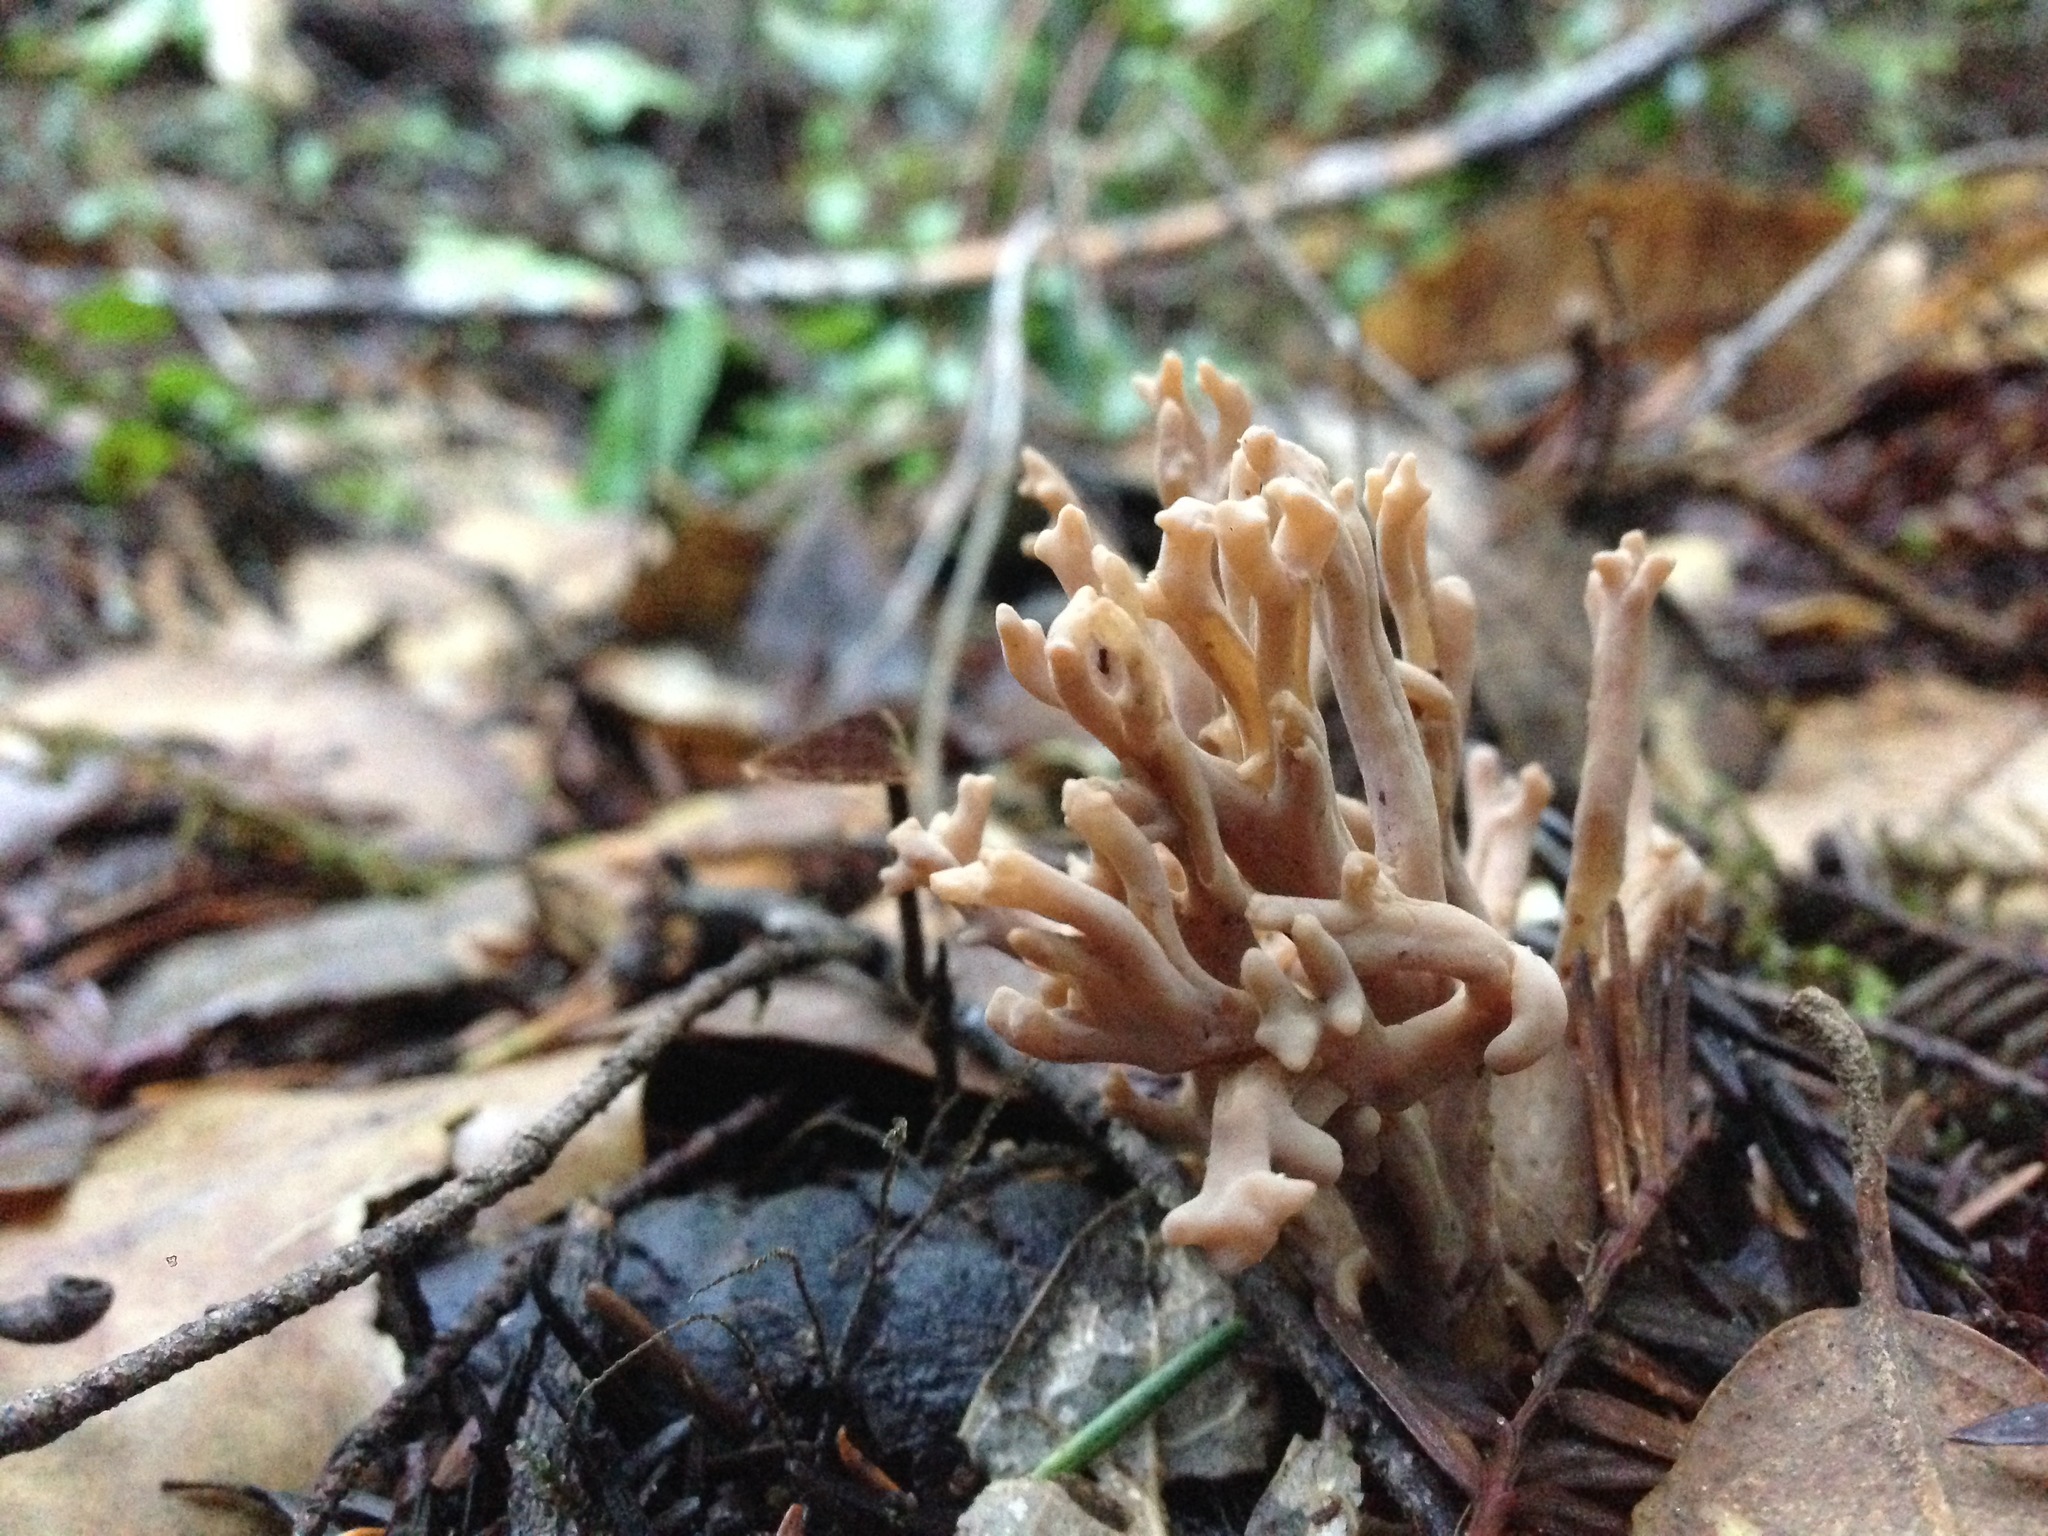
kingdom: Fungi
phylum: Basidiomycota
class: Agaricomycetes
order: Cantharellales
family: Hydnaceae
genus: Clavulina
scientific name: Clavulina cinerea
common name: Grey coral
